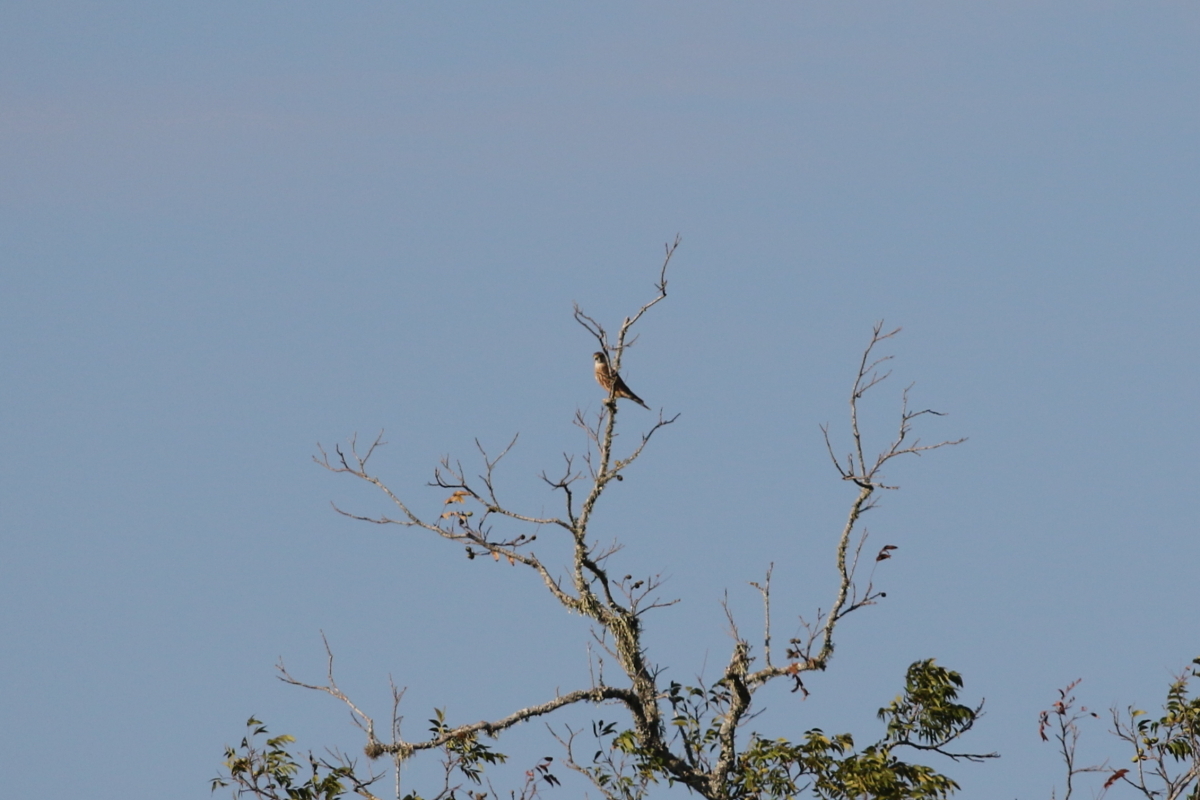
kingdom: Animalia
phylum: Chordata
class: Aves
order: Falconiformes
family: Falconidae
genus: Falco
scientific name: Falco columbarius
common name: Merlin
